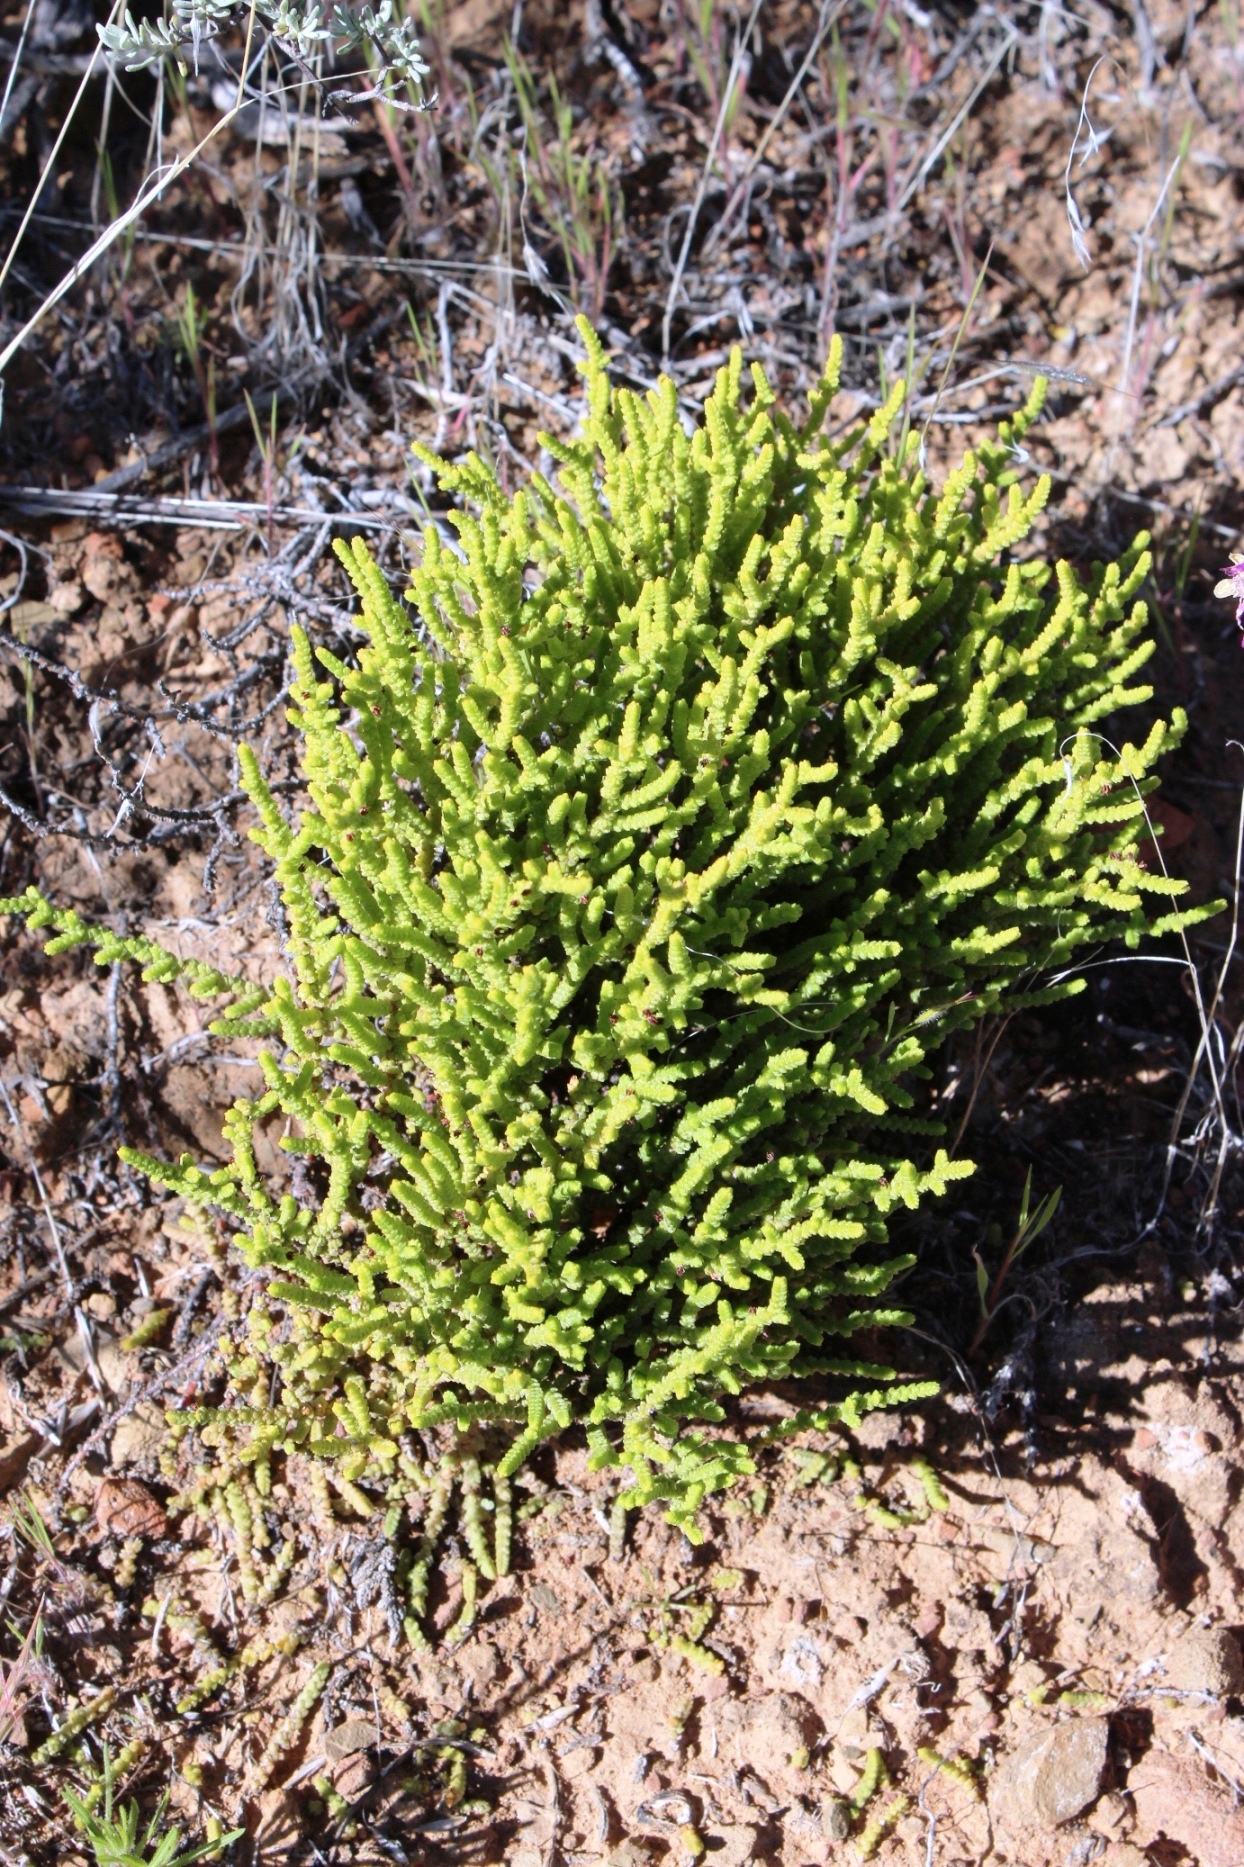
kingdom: Plantae
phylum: Tracheophyta
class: Magnoliopsida
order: Saxifragales
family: Crassulaceae
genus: Crassula
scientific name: Crassula muscosa
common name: Toy-cypress
